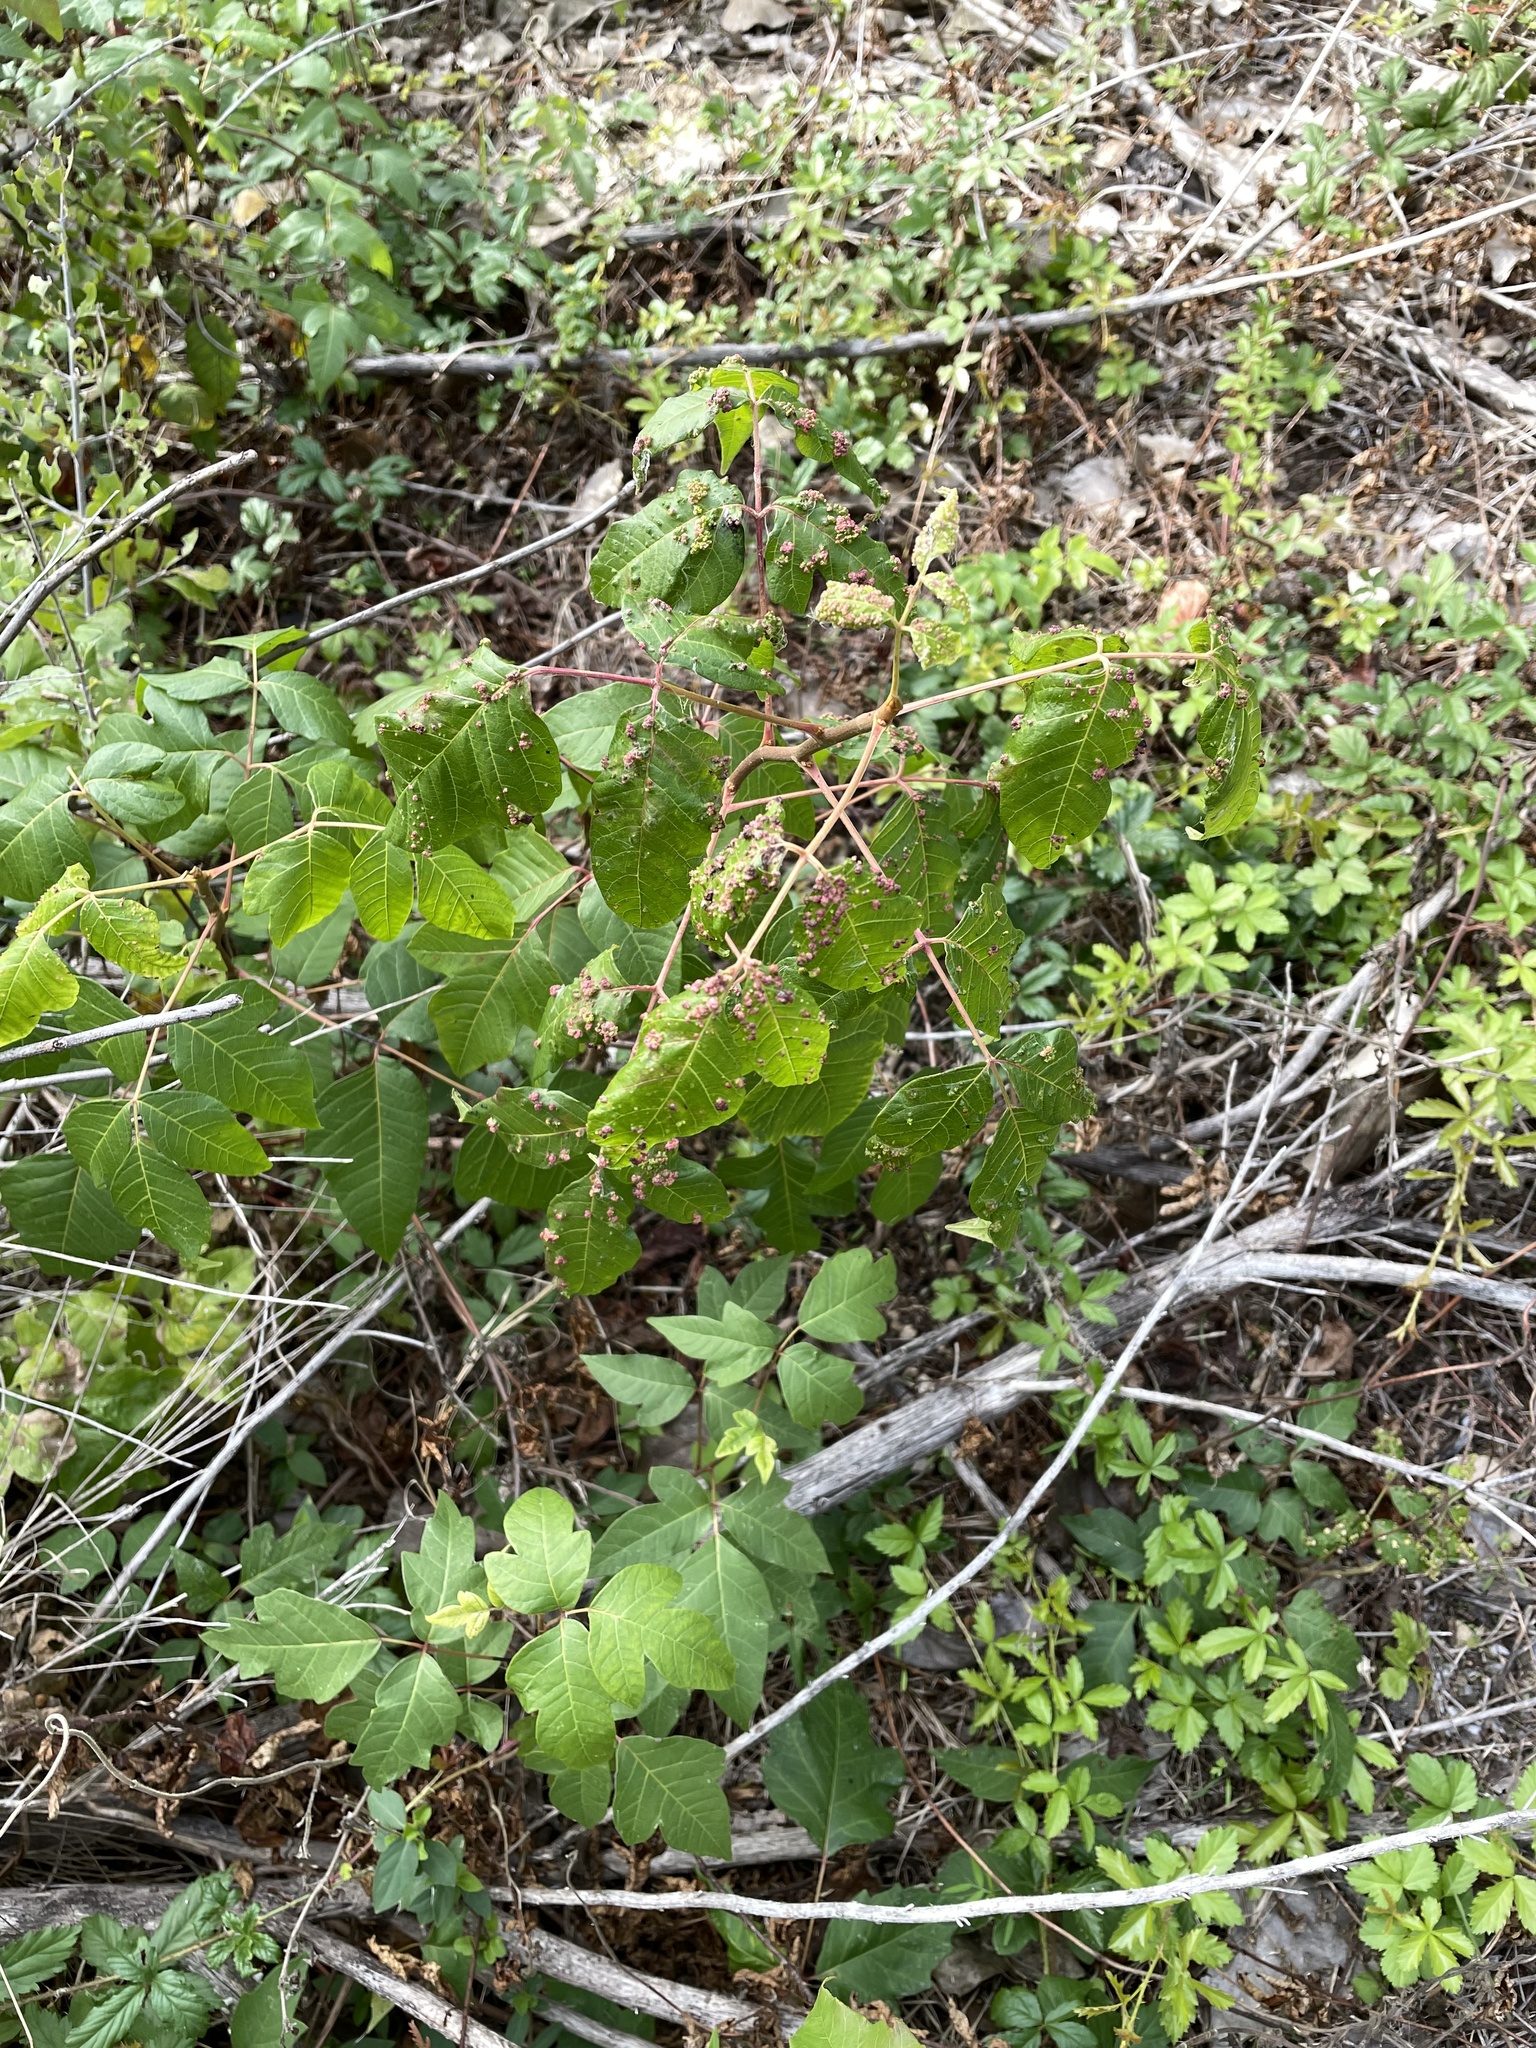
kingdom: Animalia
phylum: Arthropoda
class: Arachnida
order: Trombidiformes
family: Eriophyidae
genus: Aculops
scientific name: Aculops
